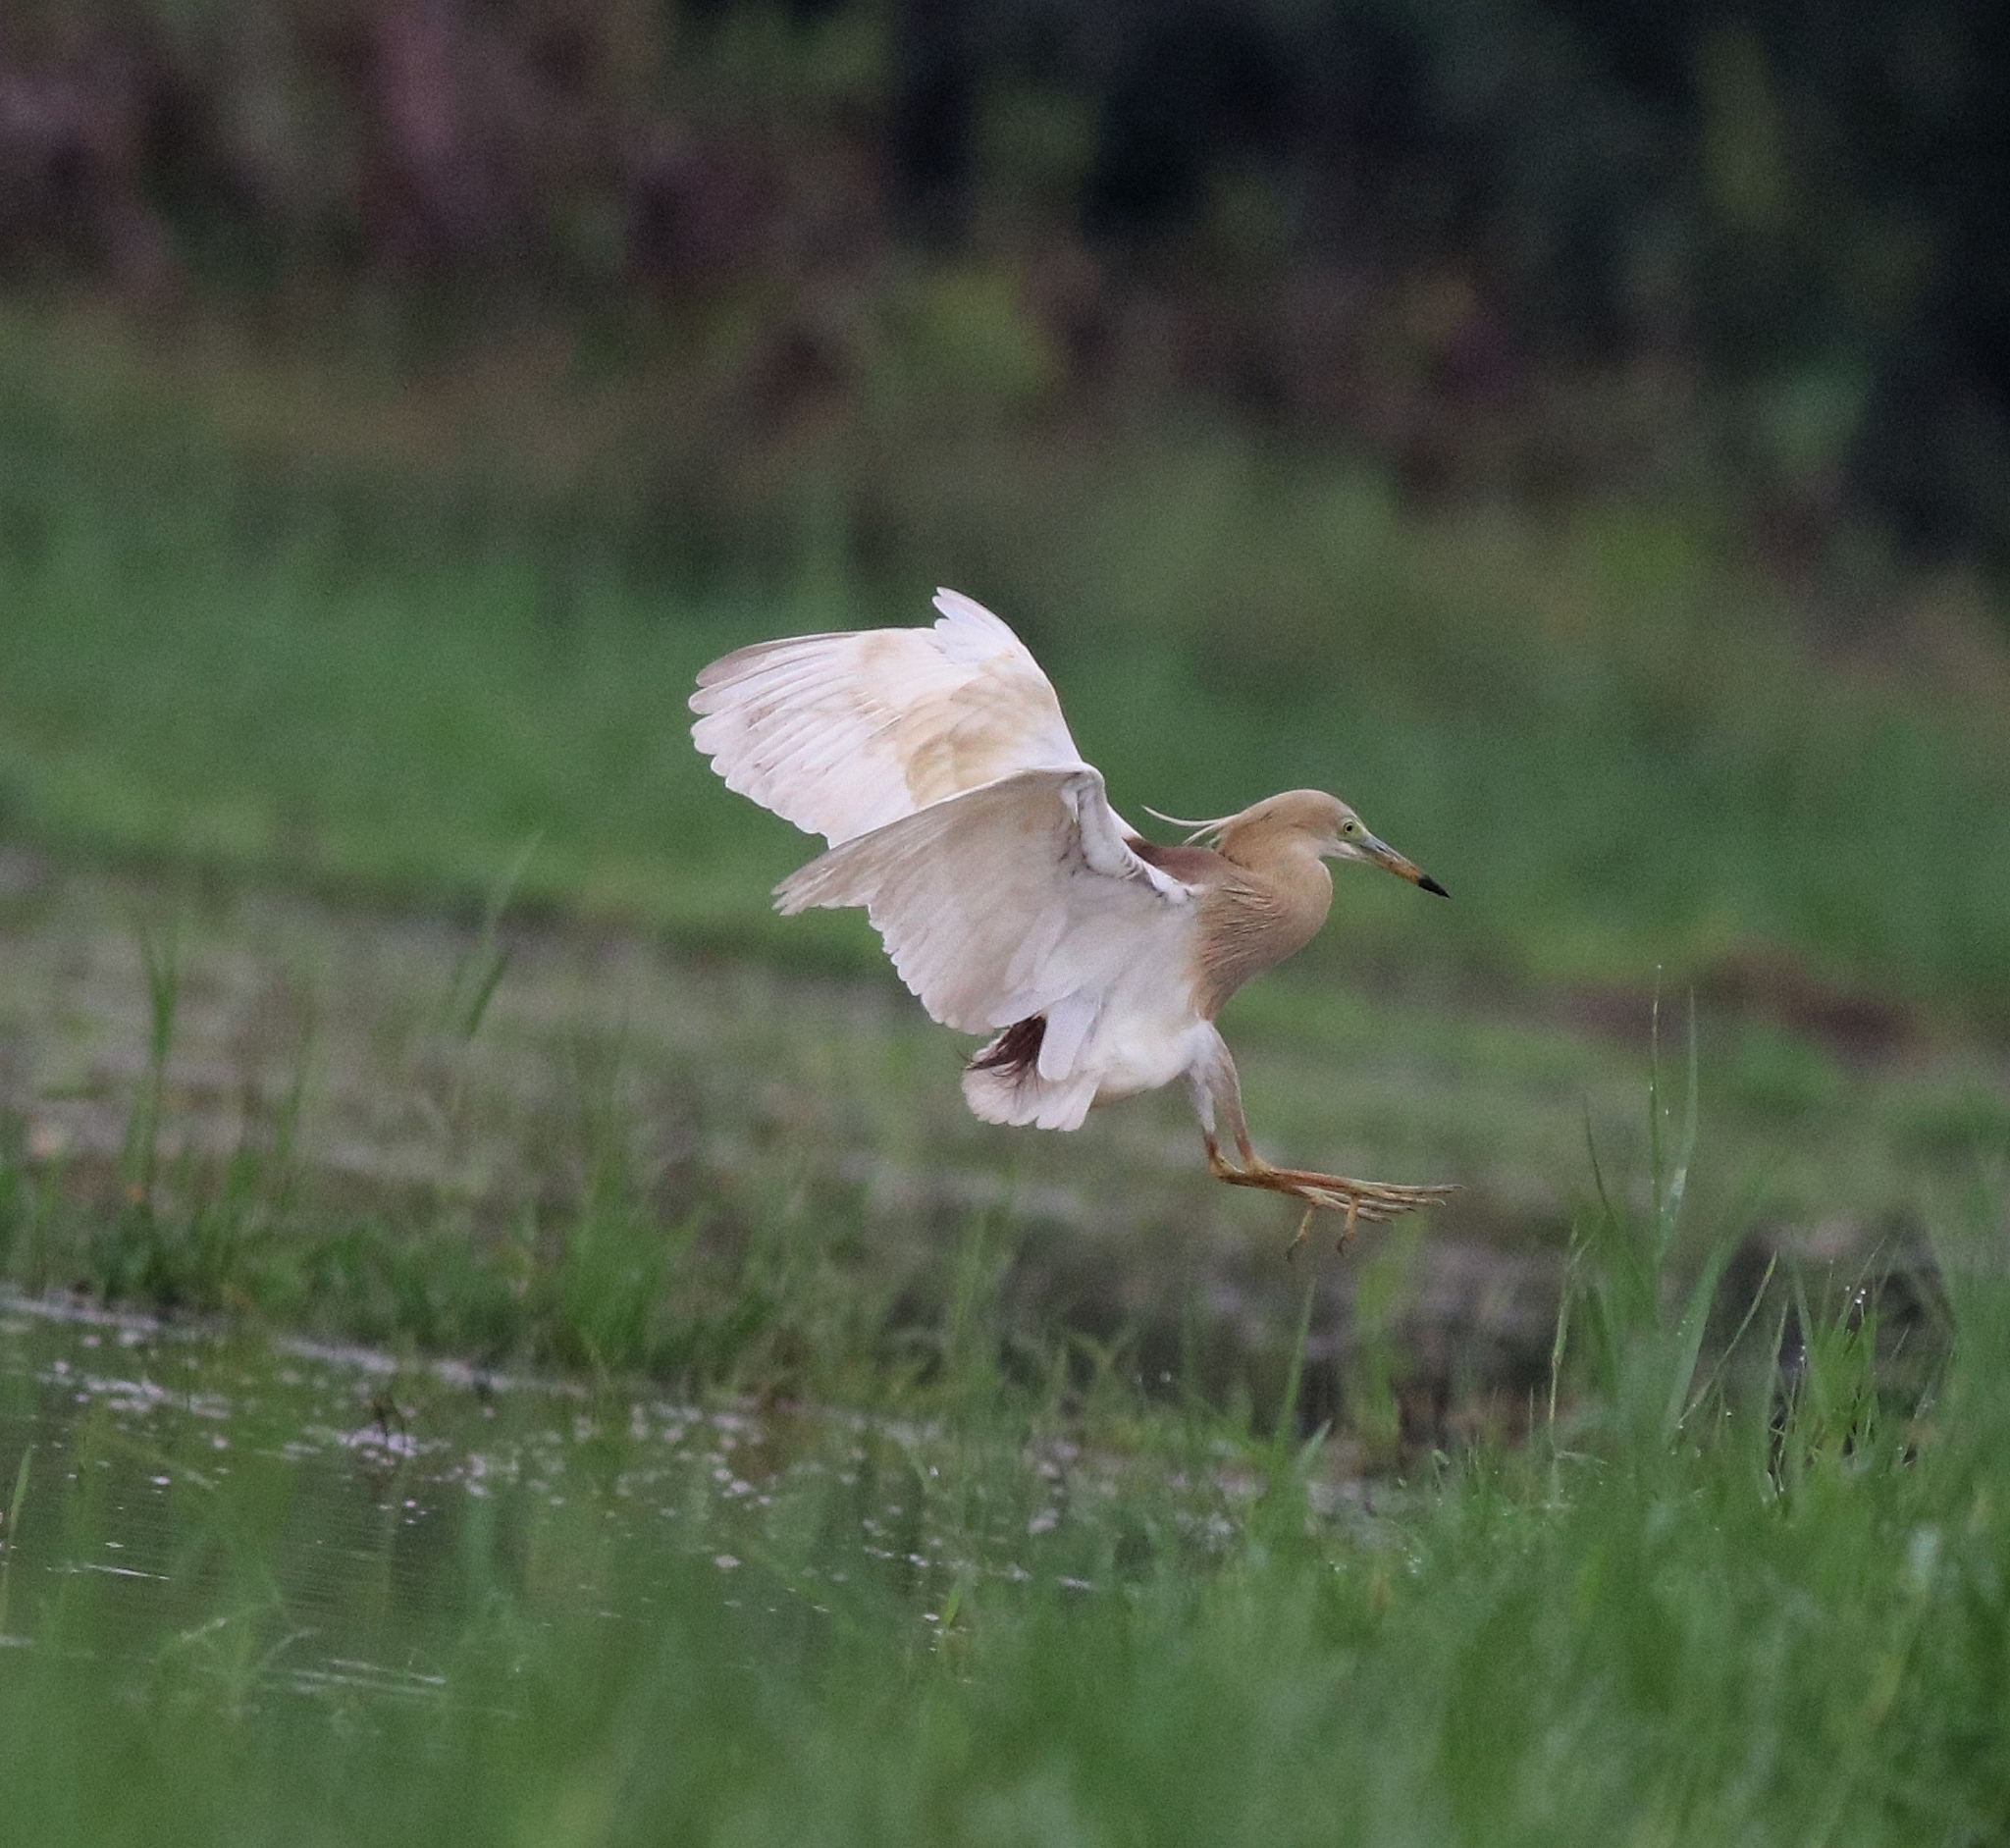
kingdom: Animalia
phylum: Chordata
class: Aves
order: Pelecaniformes
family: Ardeidae
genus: Ardeola
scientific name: Ardeola grayii
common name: Indian pond heron
